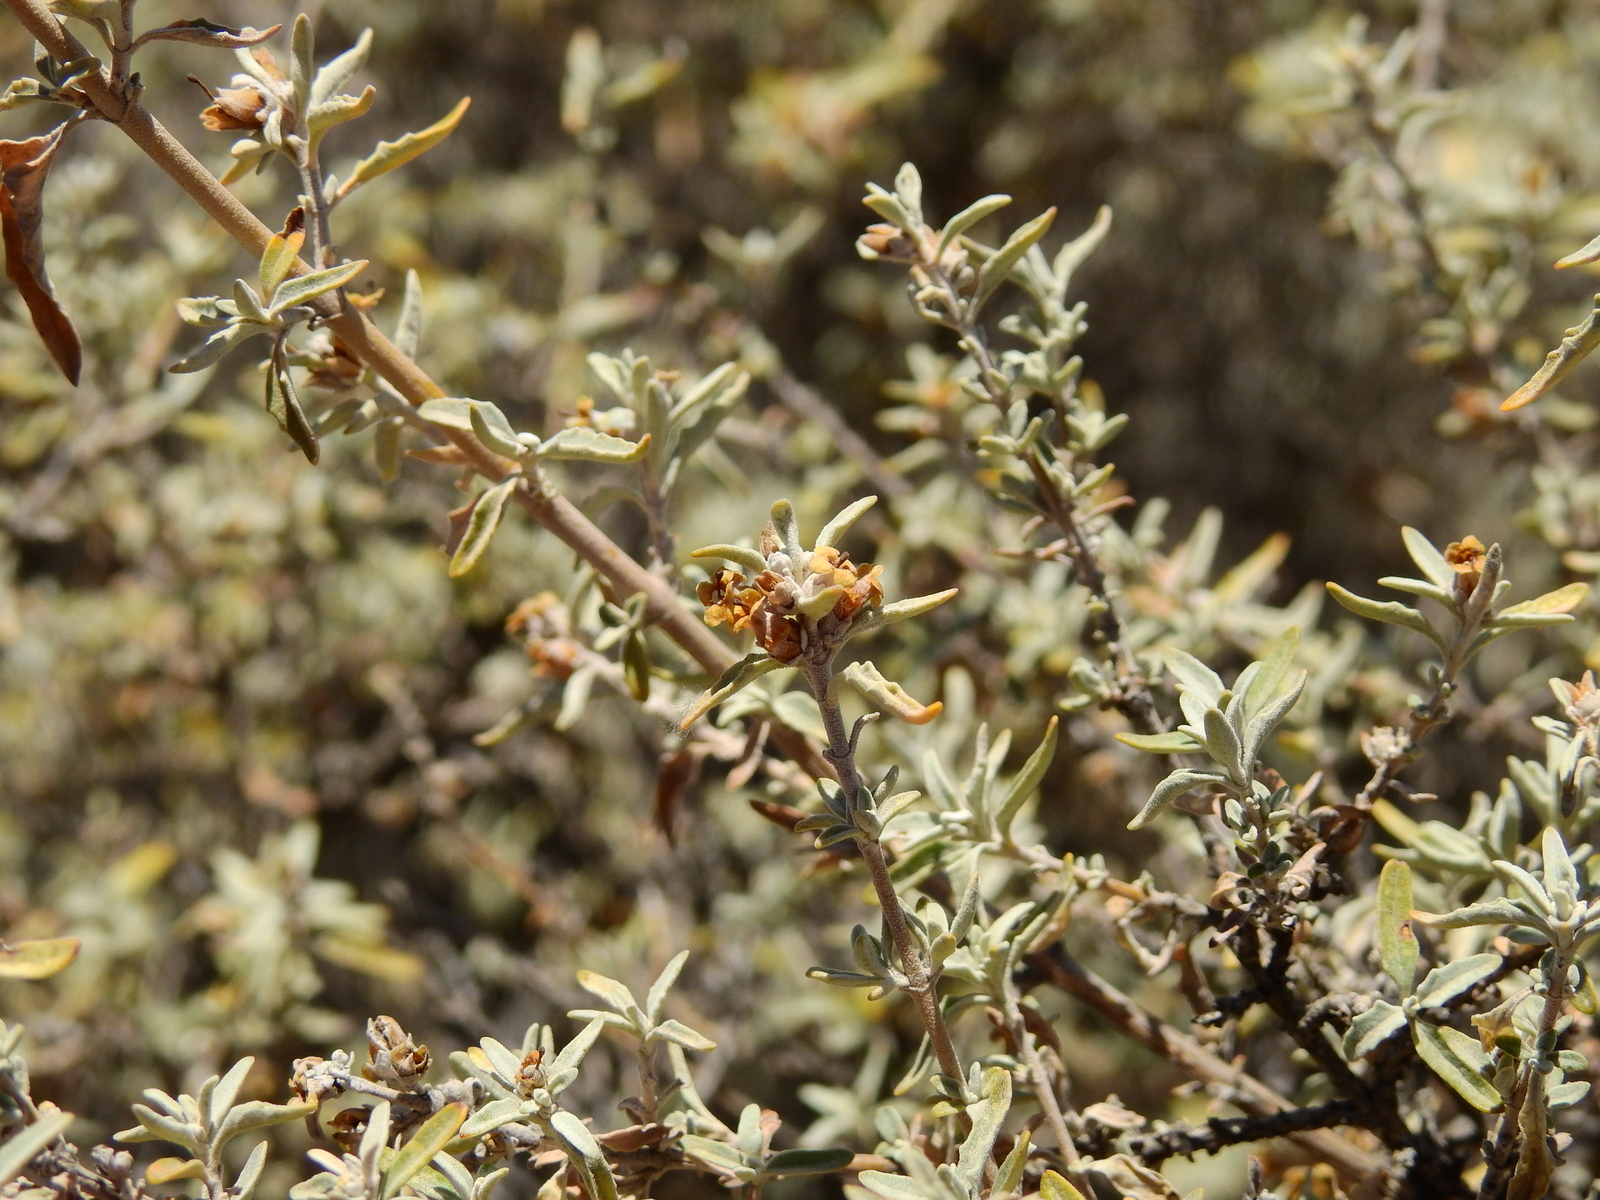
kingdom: Plantae
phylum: Tracheophyta
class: Magnoliopsida
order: Lamiales
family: Scrophulariaceae
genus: Buddleja
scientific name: Buddleja mendozensis
